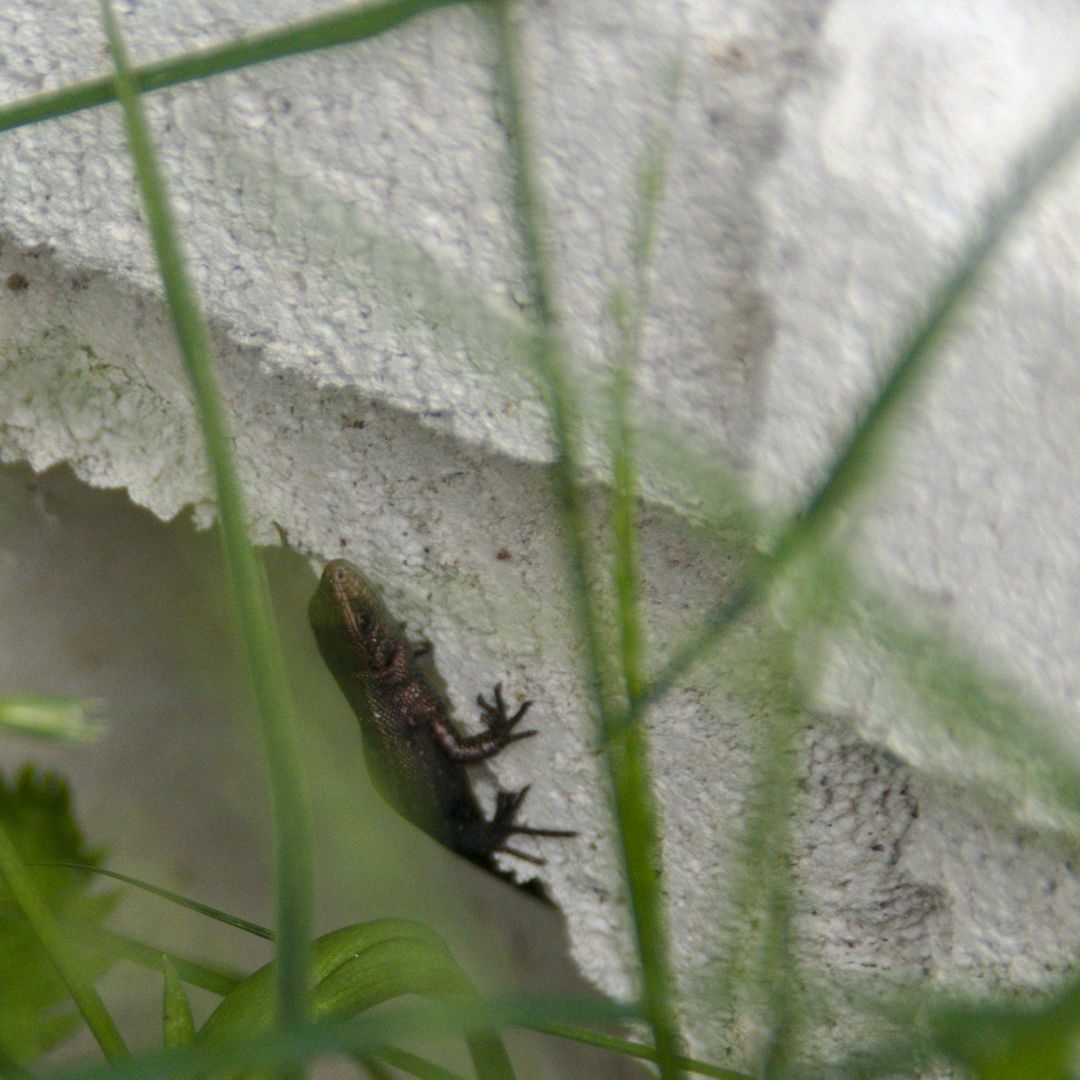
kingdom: Animalia
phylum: Chordata
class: Squamata
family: Lacertidae
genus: Zootoca
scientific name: Zootoca vivipara
